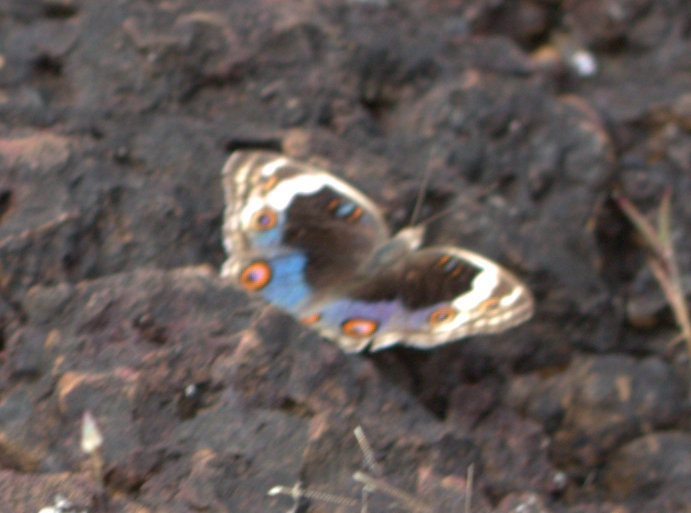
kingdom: Animalia
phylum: Arthropoda
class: Insecta
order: Lepidoptera
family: Nymphalidae
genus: Junonia
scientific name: Junonia orithya
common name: Blue pansy
